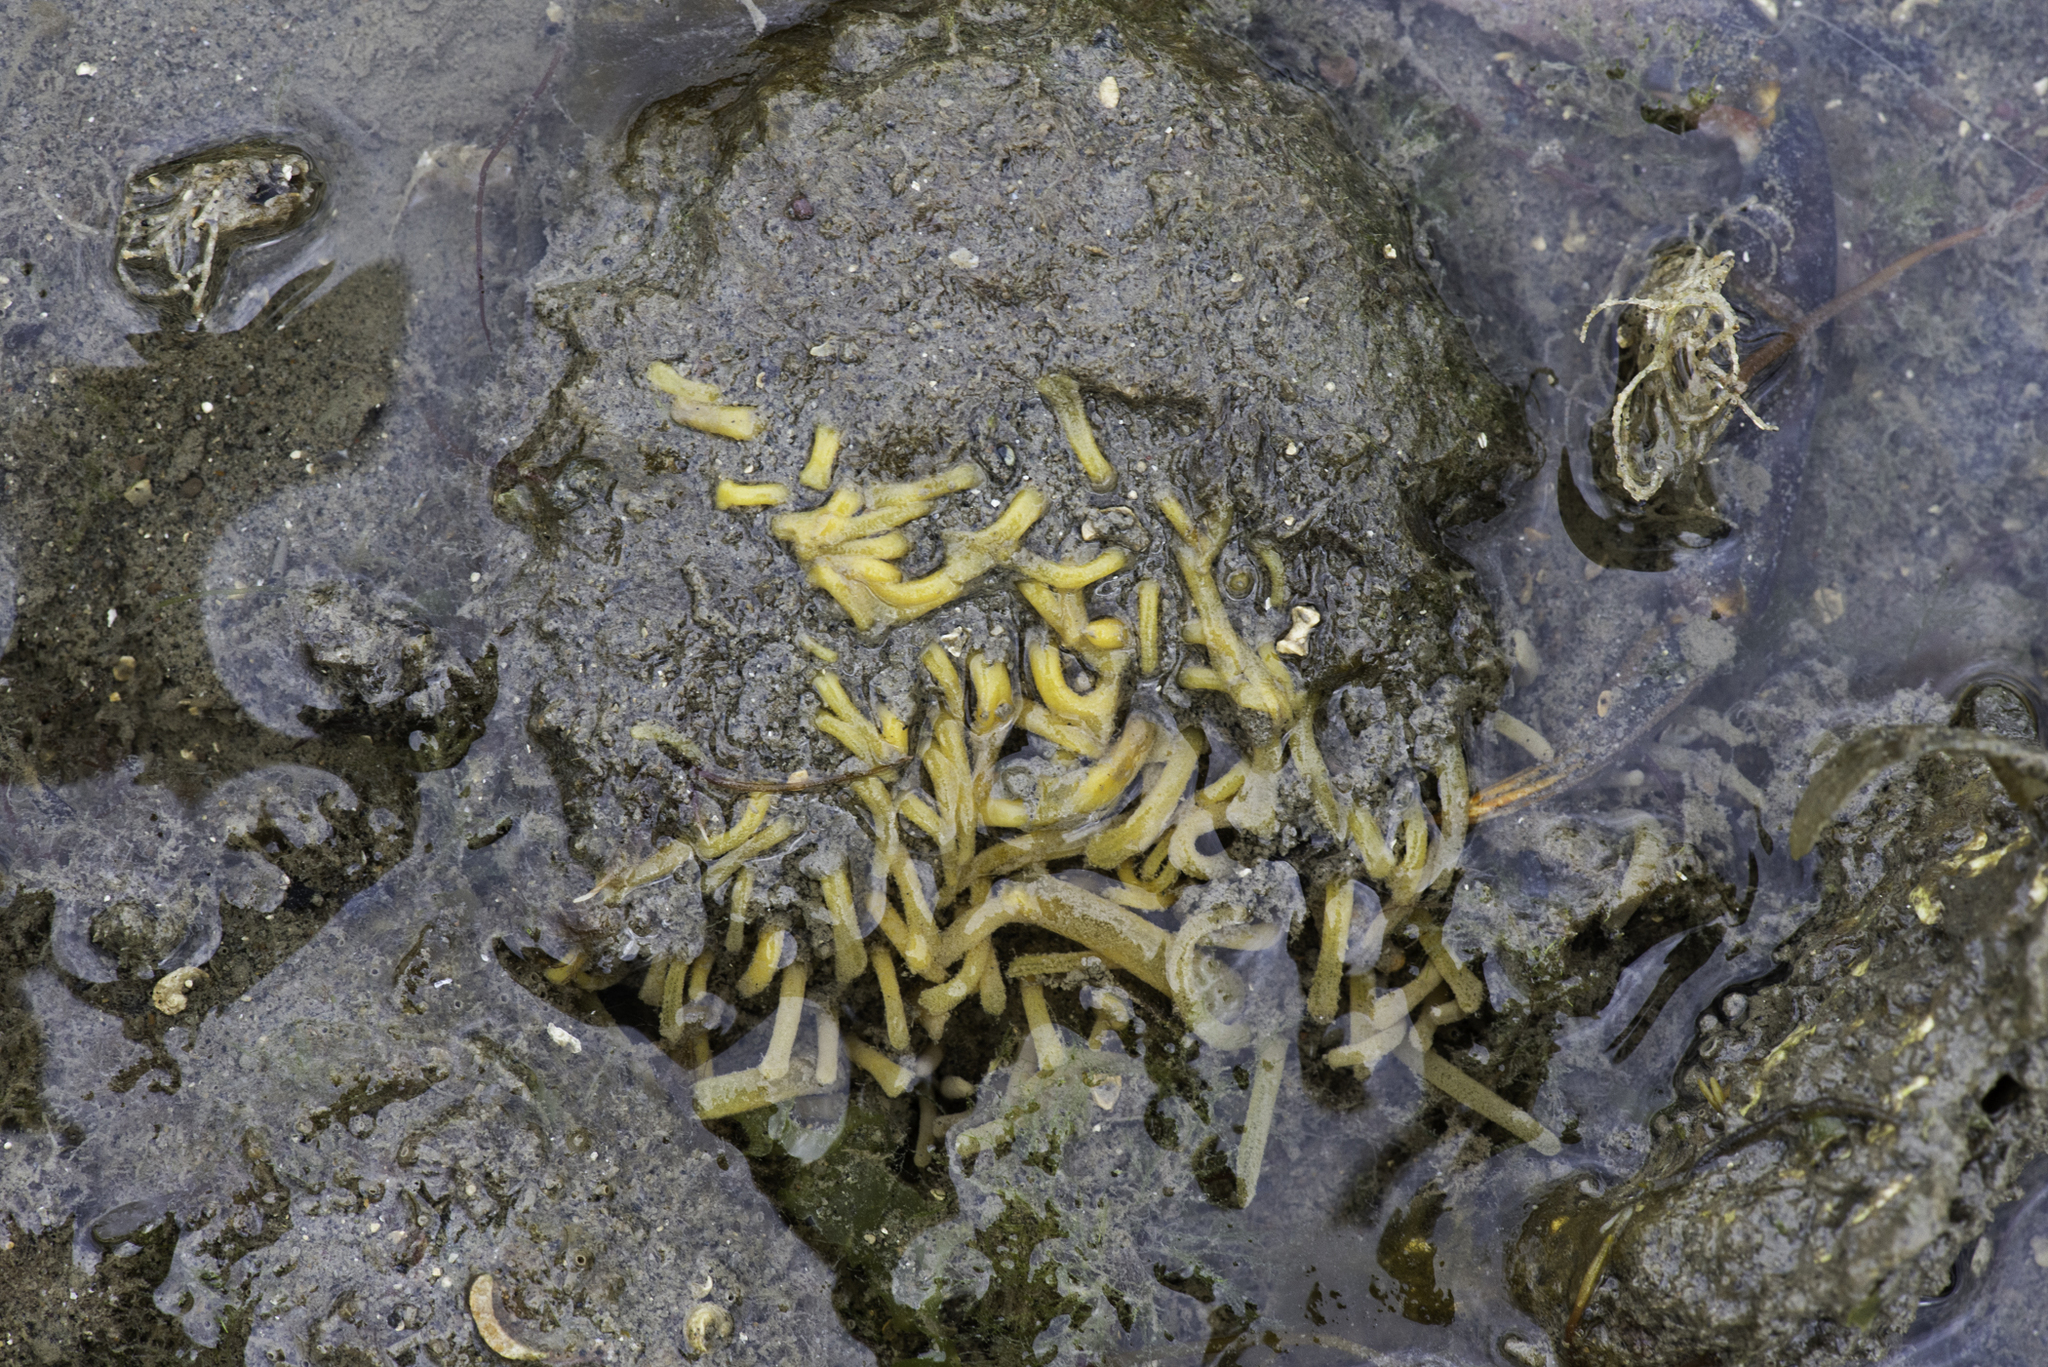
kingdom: Animalia
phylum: Porifera
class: Demospongiae
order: Polymastiida
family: Polymastiidae
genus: Polymastia
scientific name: Polymastia penicillus
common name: Chimney sponge
